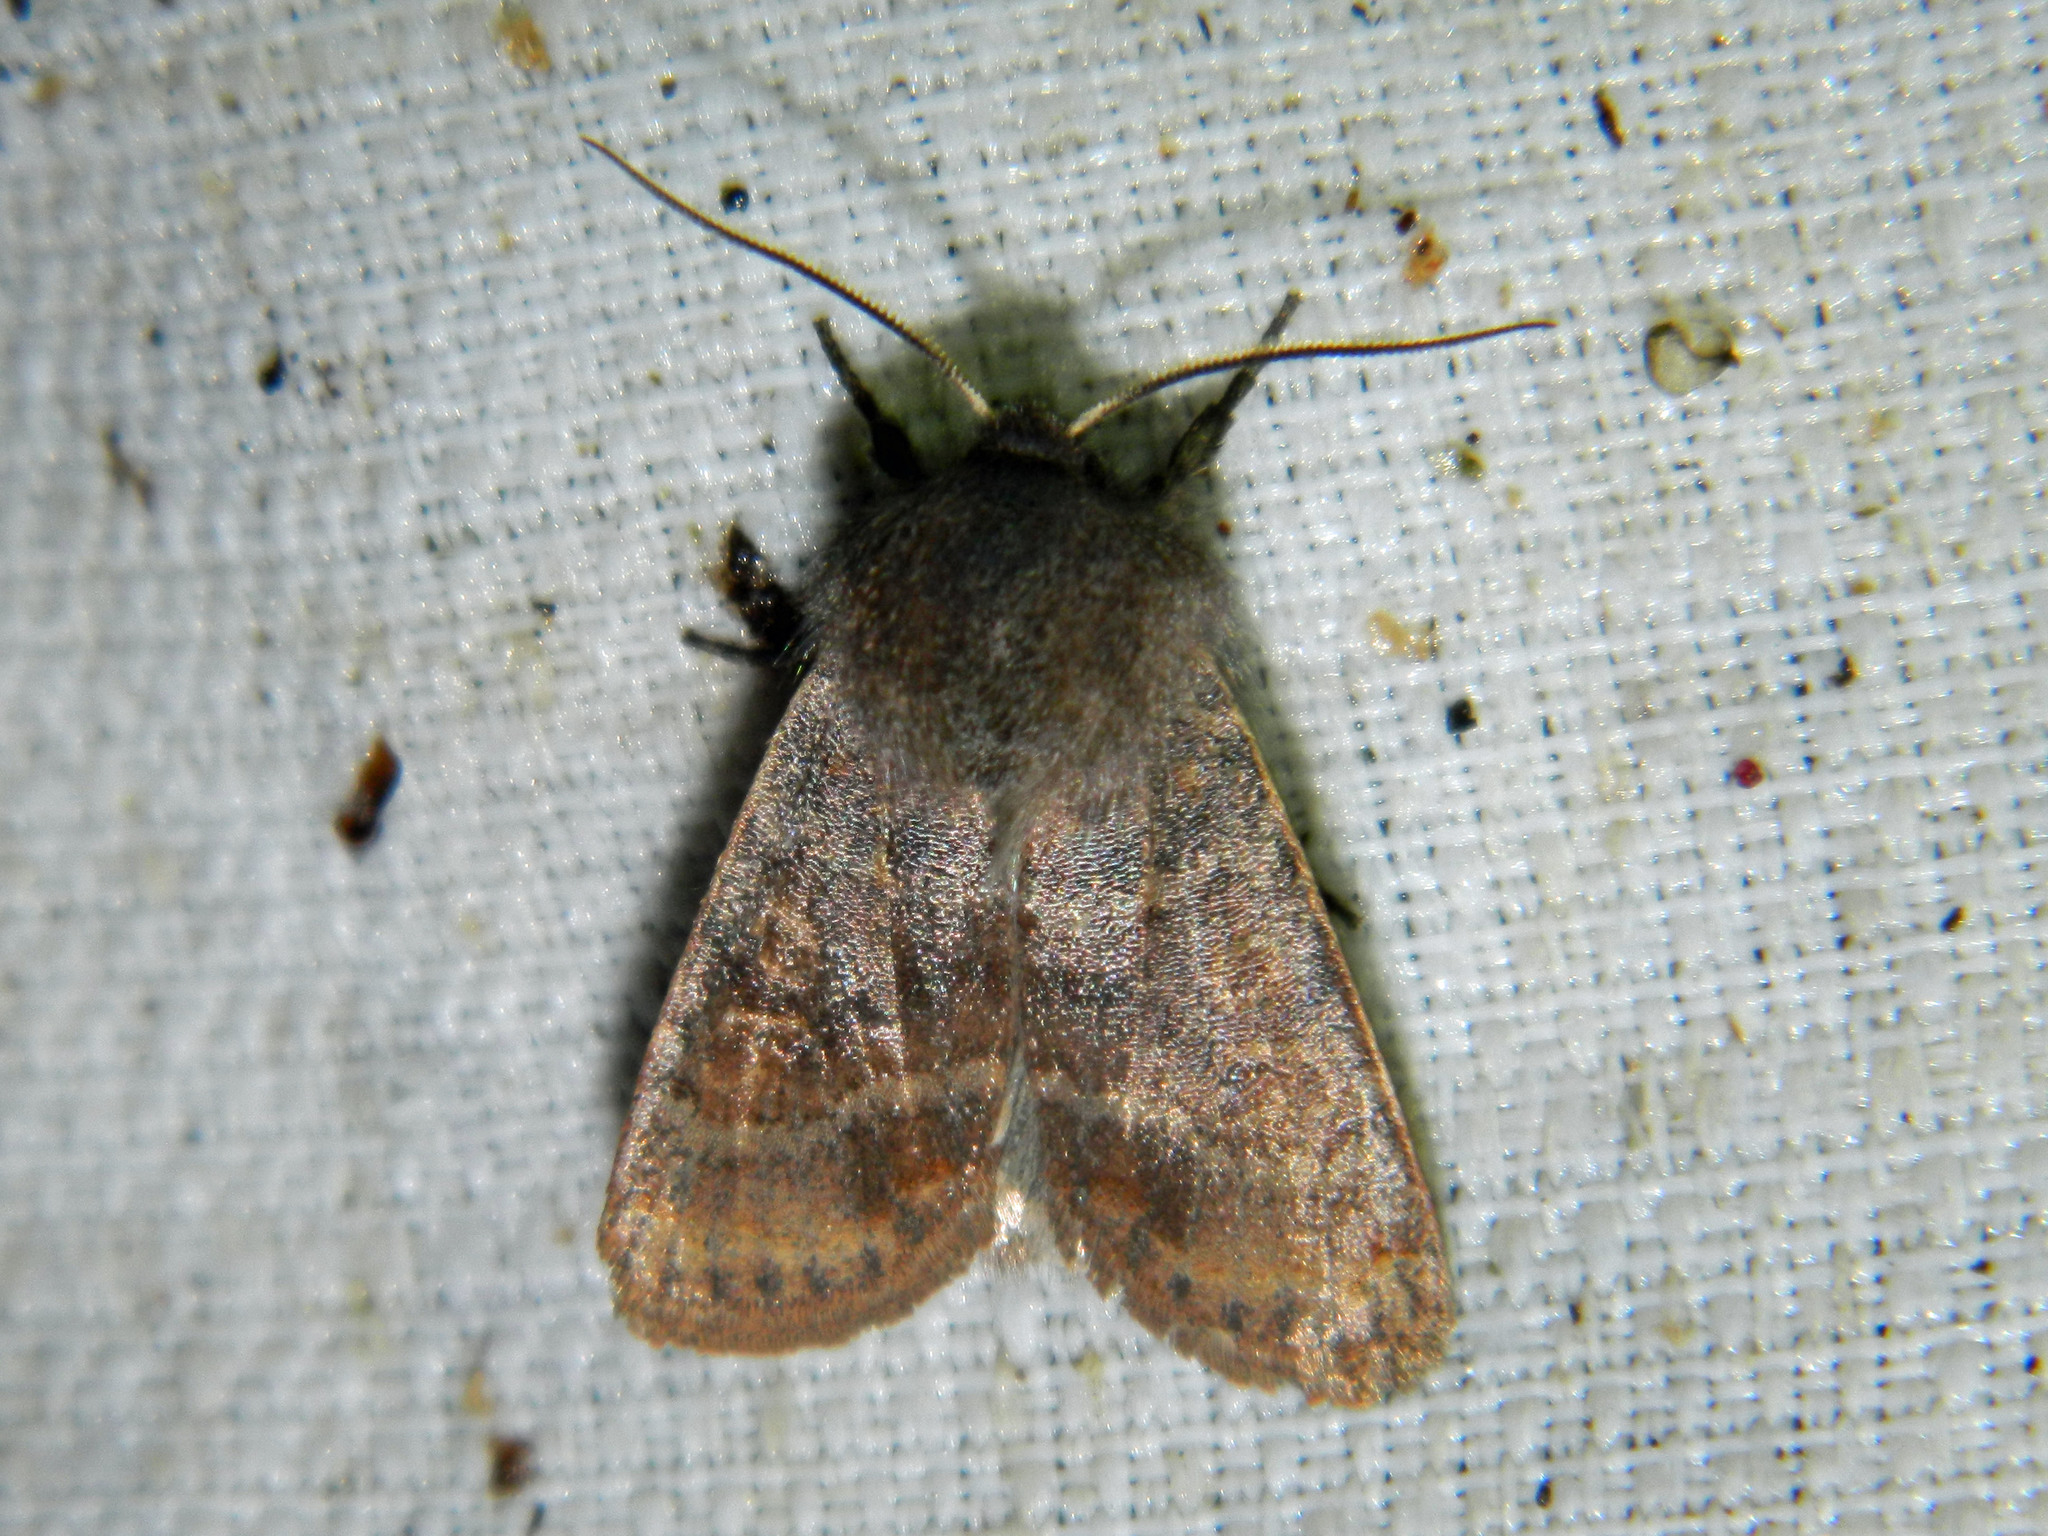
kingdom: Animalia
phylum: Arthropoda
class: Insecta
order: Lepidoptera
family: Noctuidae
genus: Homoglaea
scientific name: Homoglaea hircina
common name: Goat sallow
